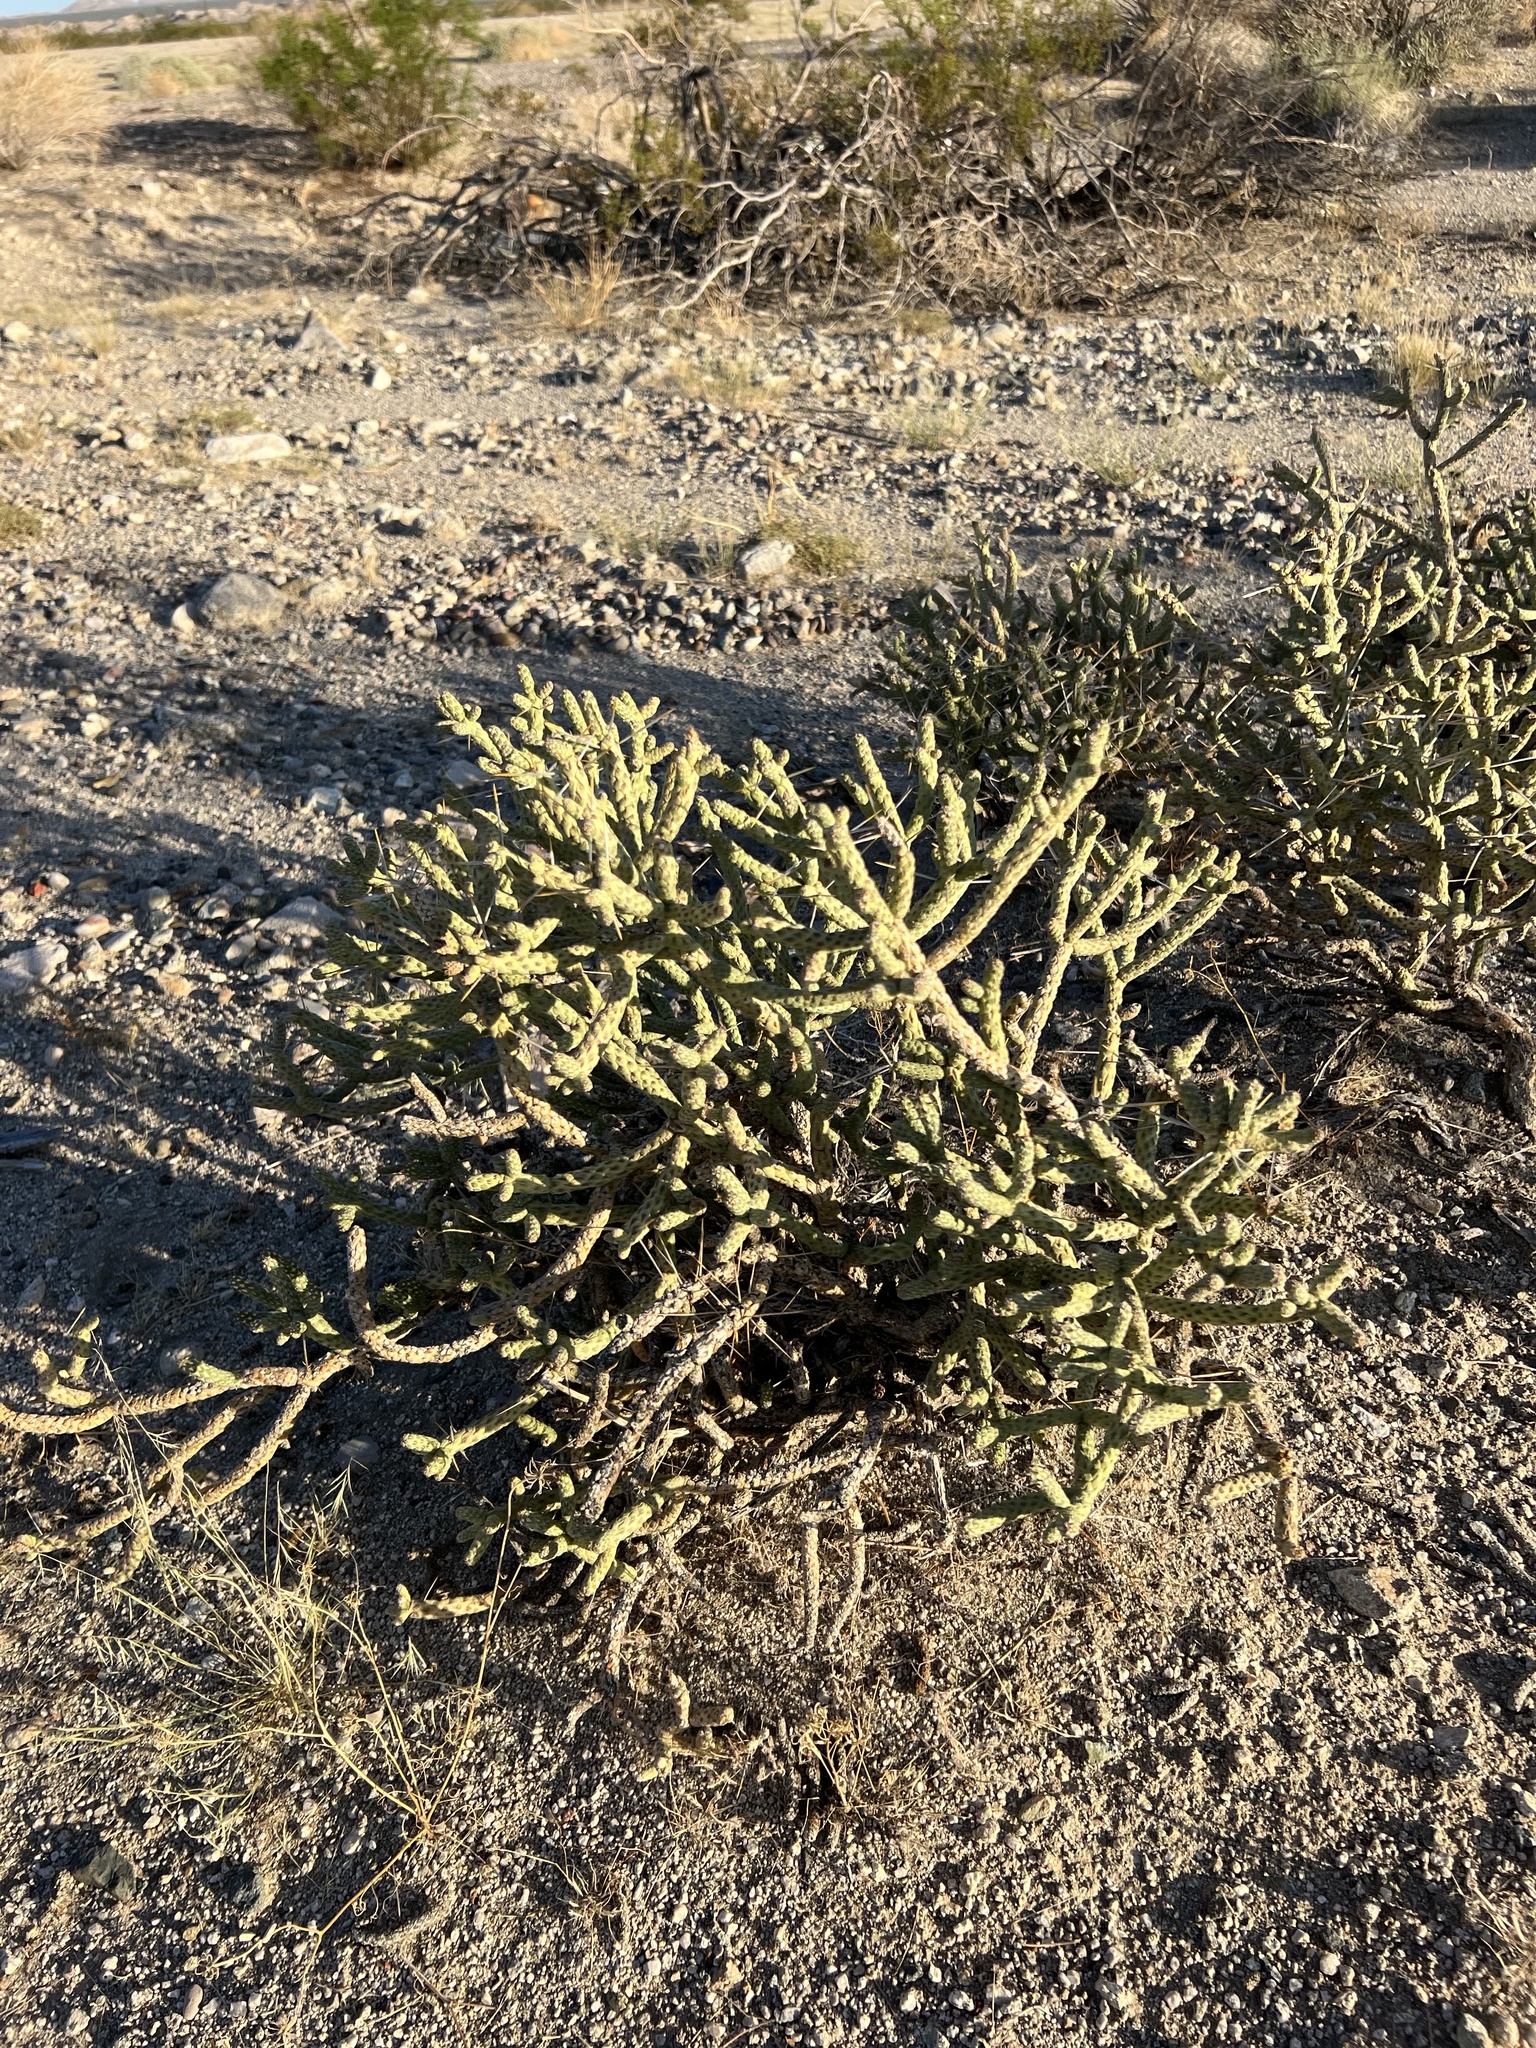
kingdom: Plantae
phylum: Tracheophyta
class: Magnoliopsida
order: Caryophyllales
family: Cactaceae
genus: Cylindropuntia
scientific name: Cylindropuntia ramosissima
